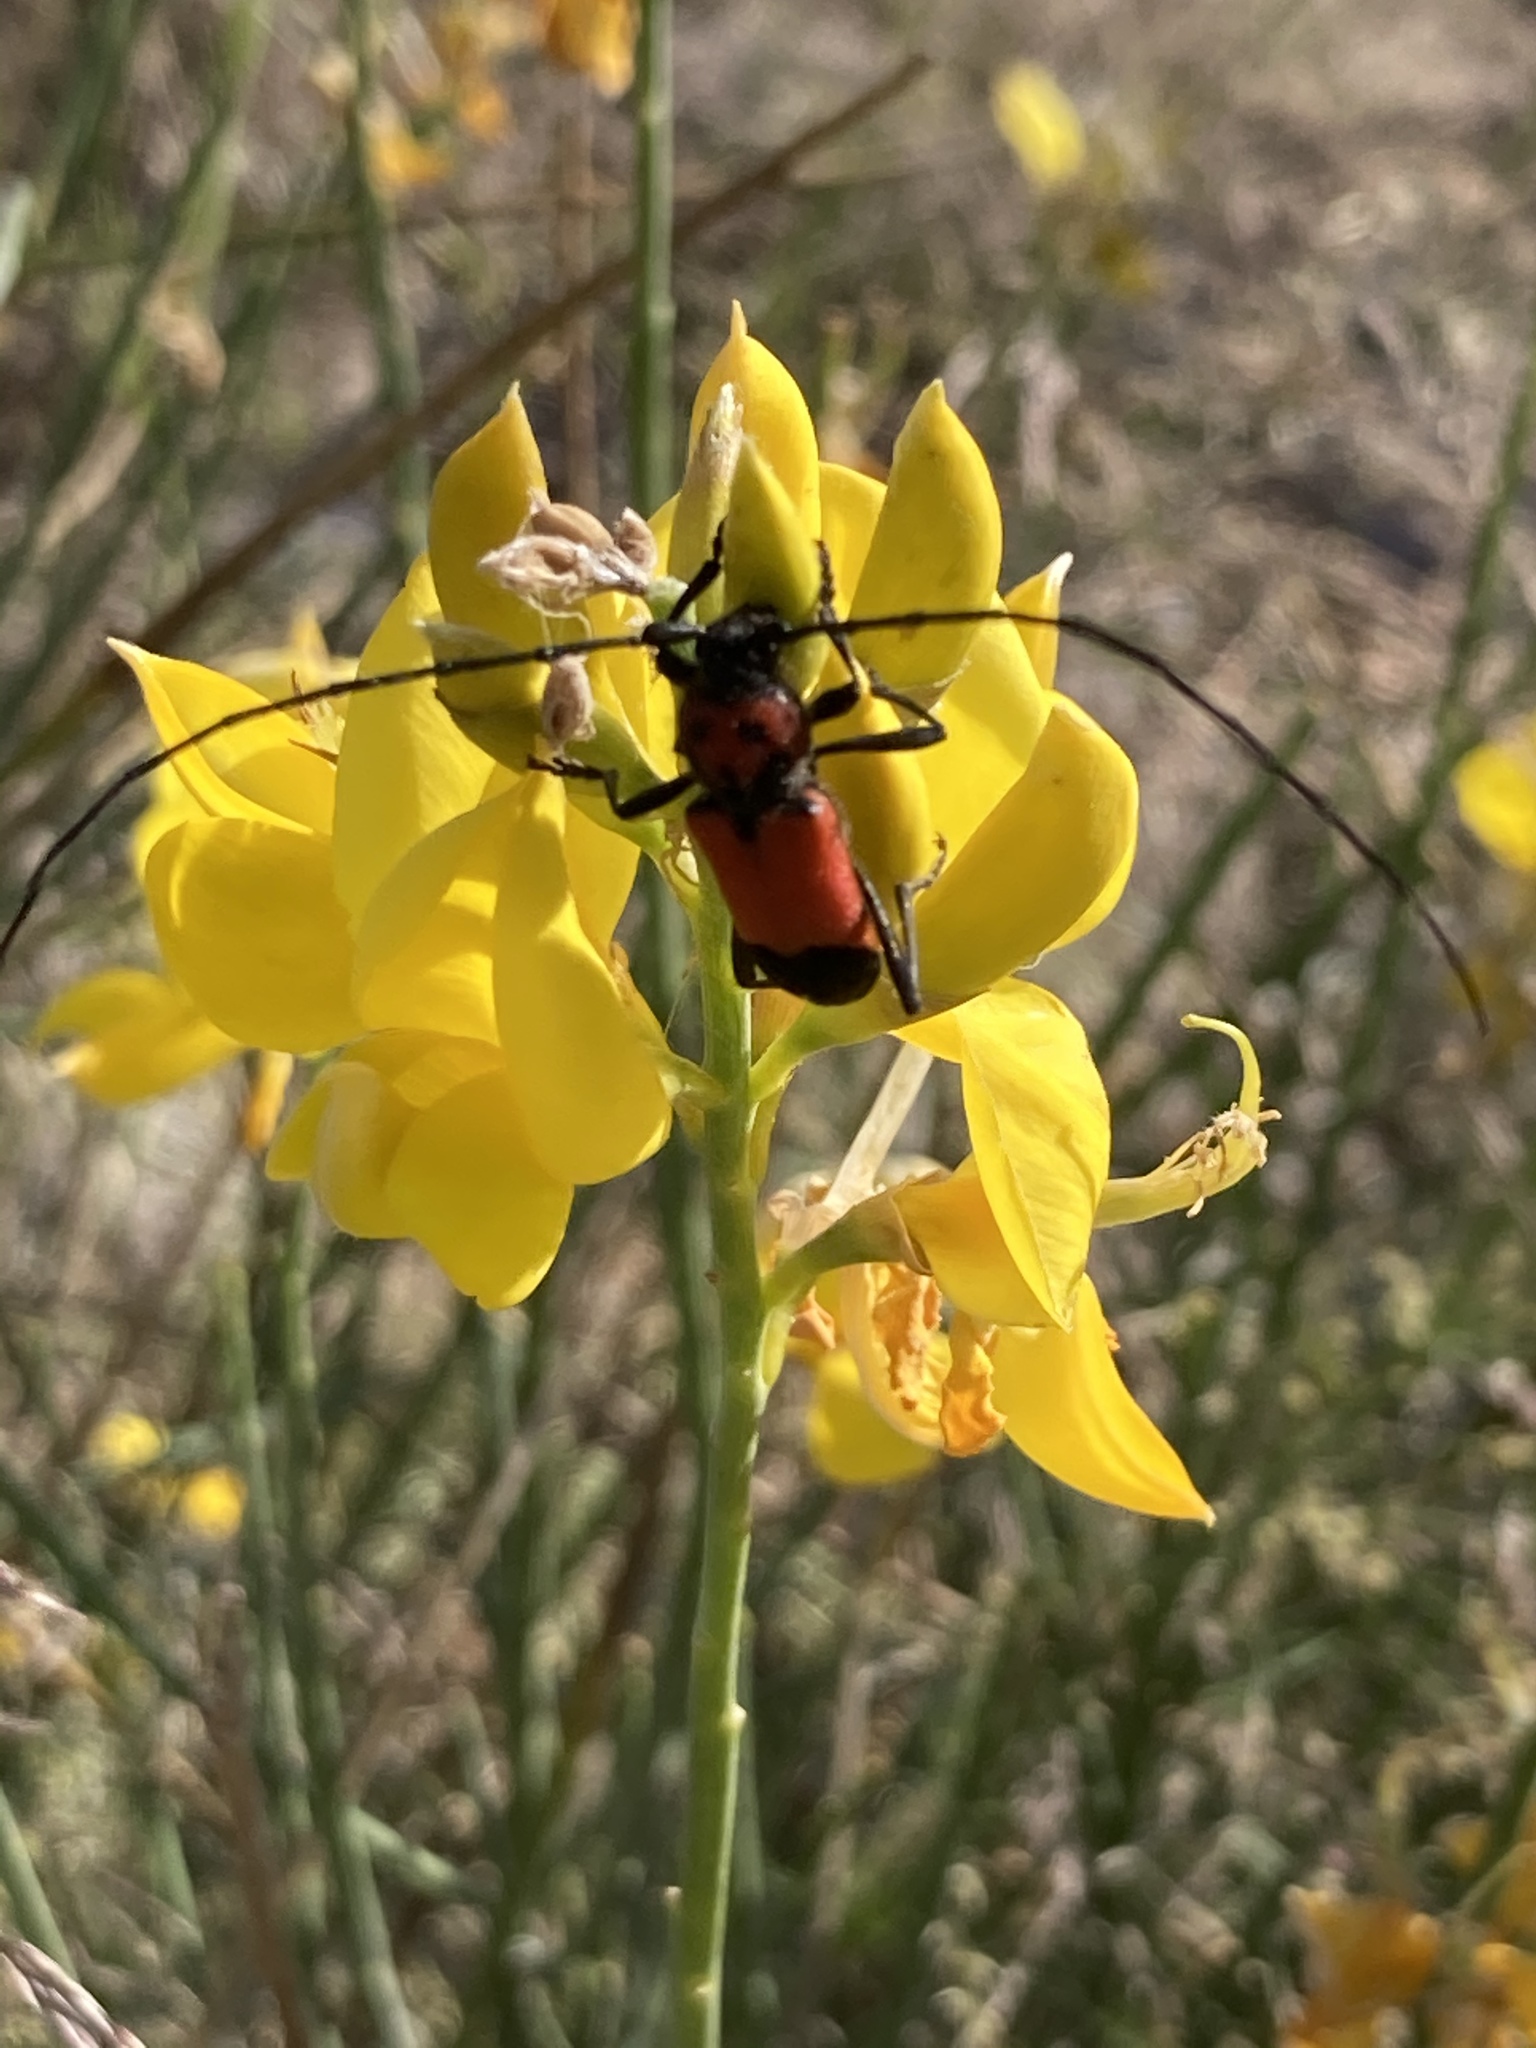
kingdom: Animalia
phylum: Arthropoda
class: Insecta
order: Coleoptera
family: Cerambycidae
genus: Purpuricenus
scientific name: Purpuricenus desfontainii
